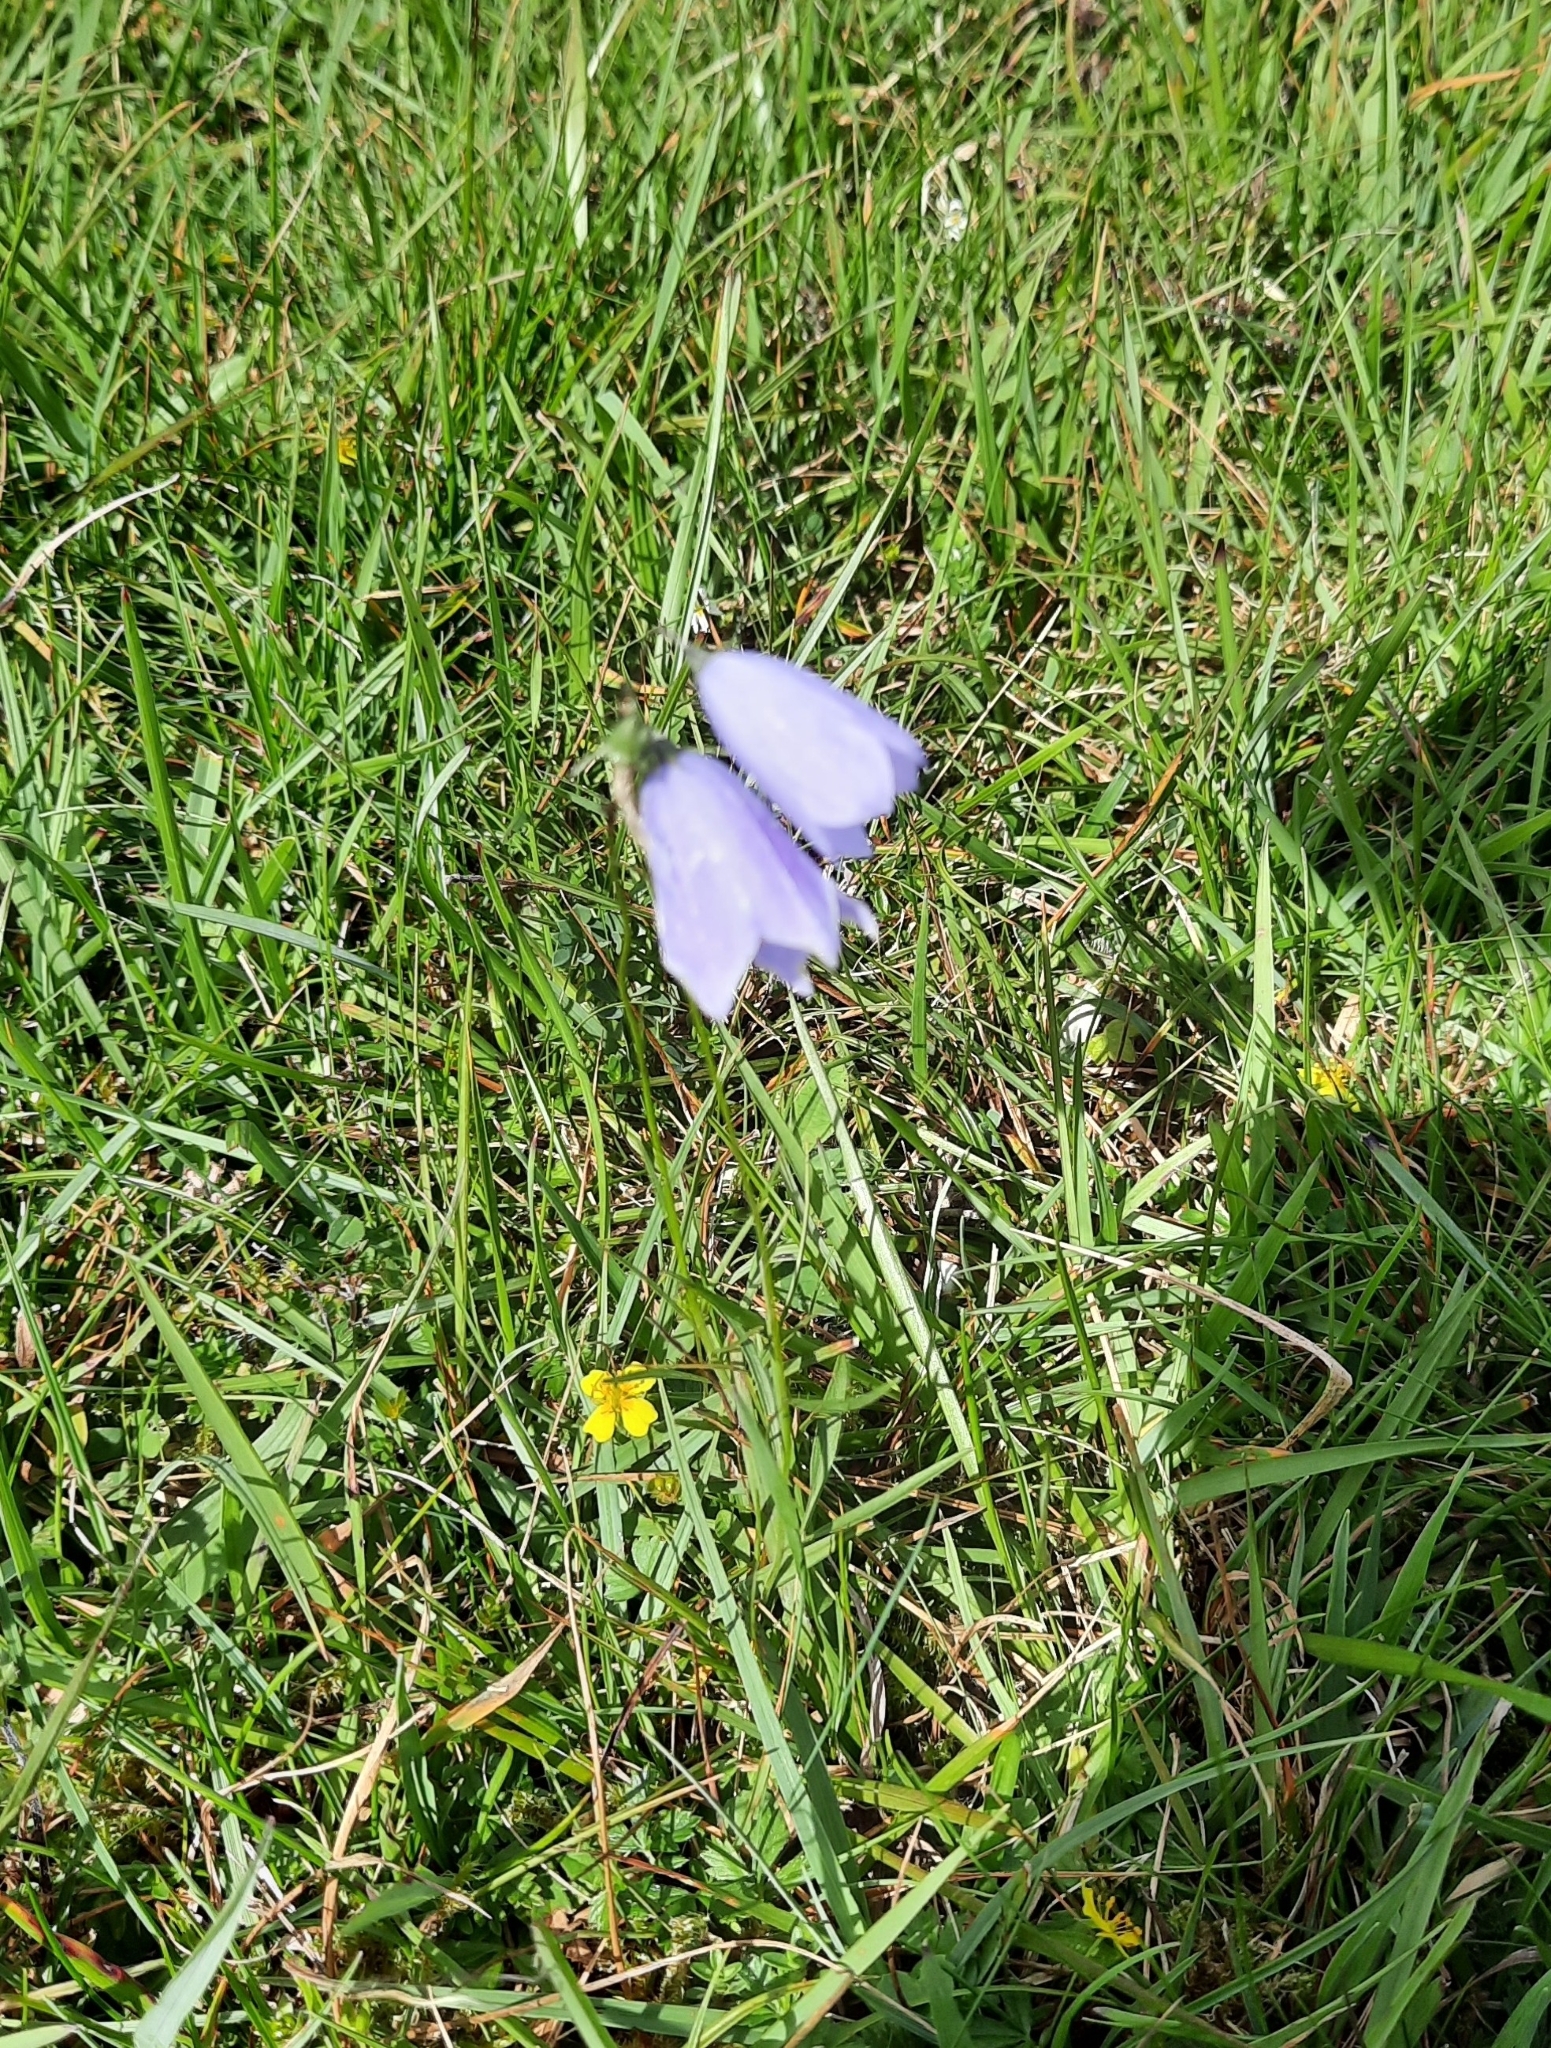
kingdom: Plantae
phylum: Tracheophyta
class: Magnoliopsida
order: Asterales
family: Campanulaceae
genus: Campanula
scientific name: Campanula rotundifolia
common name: Harebell
